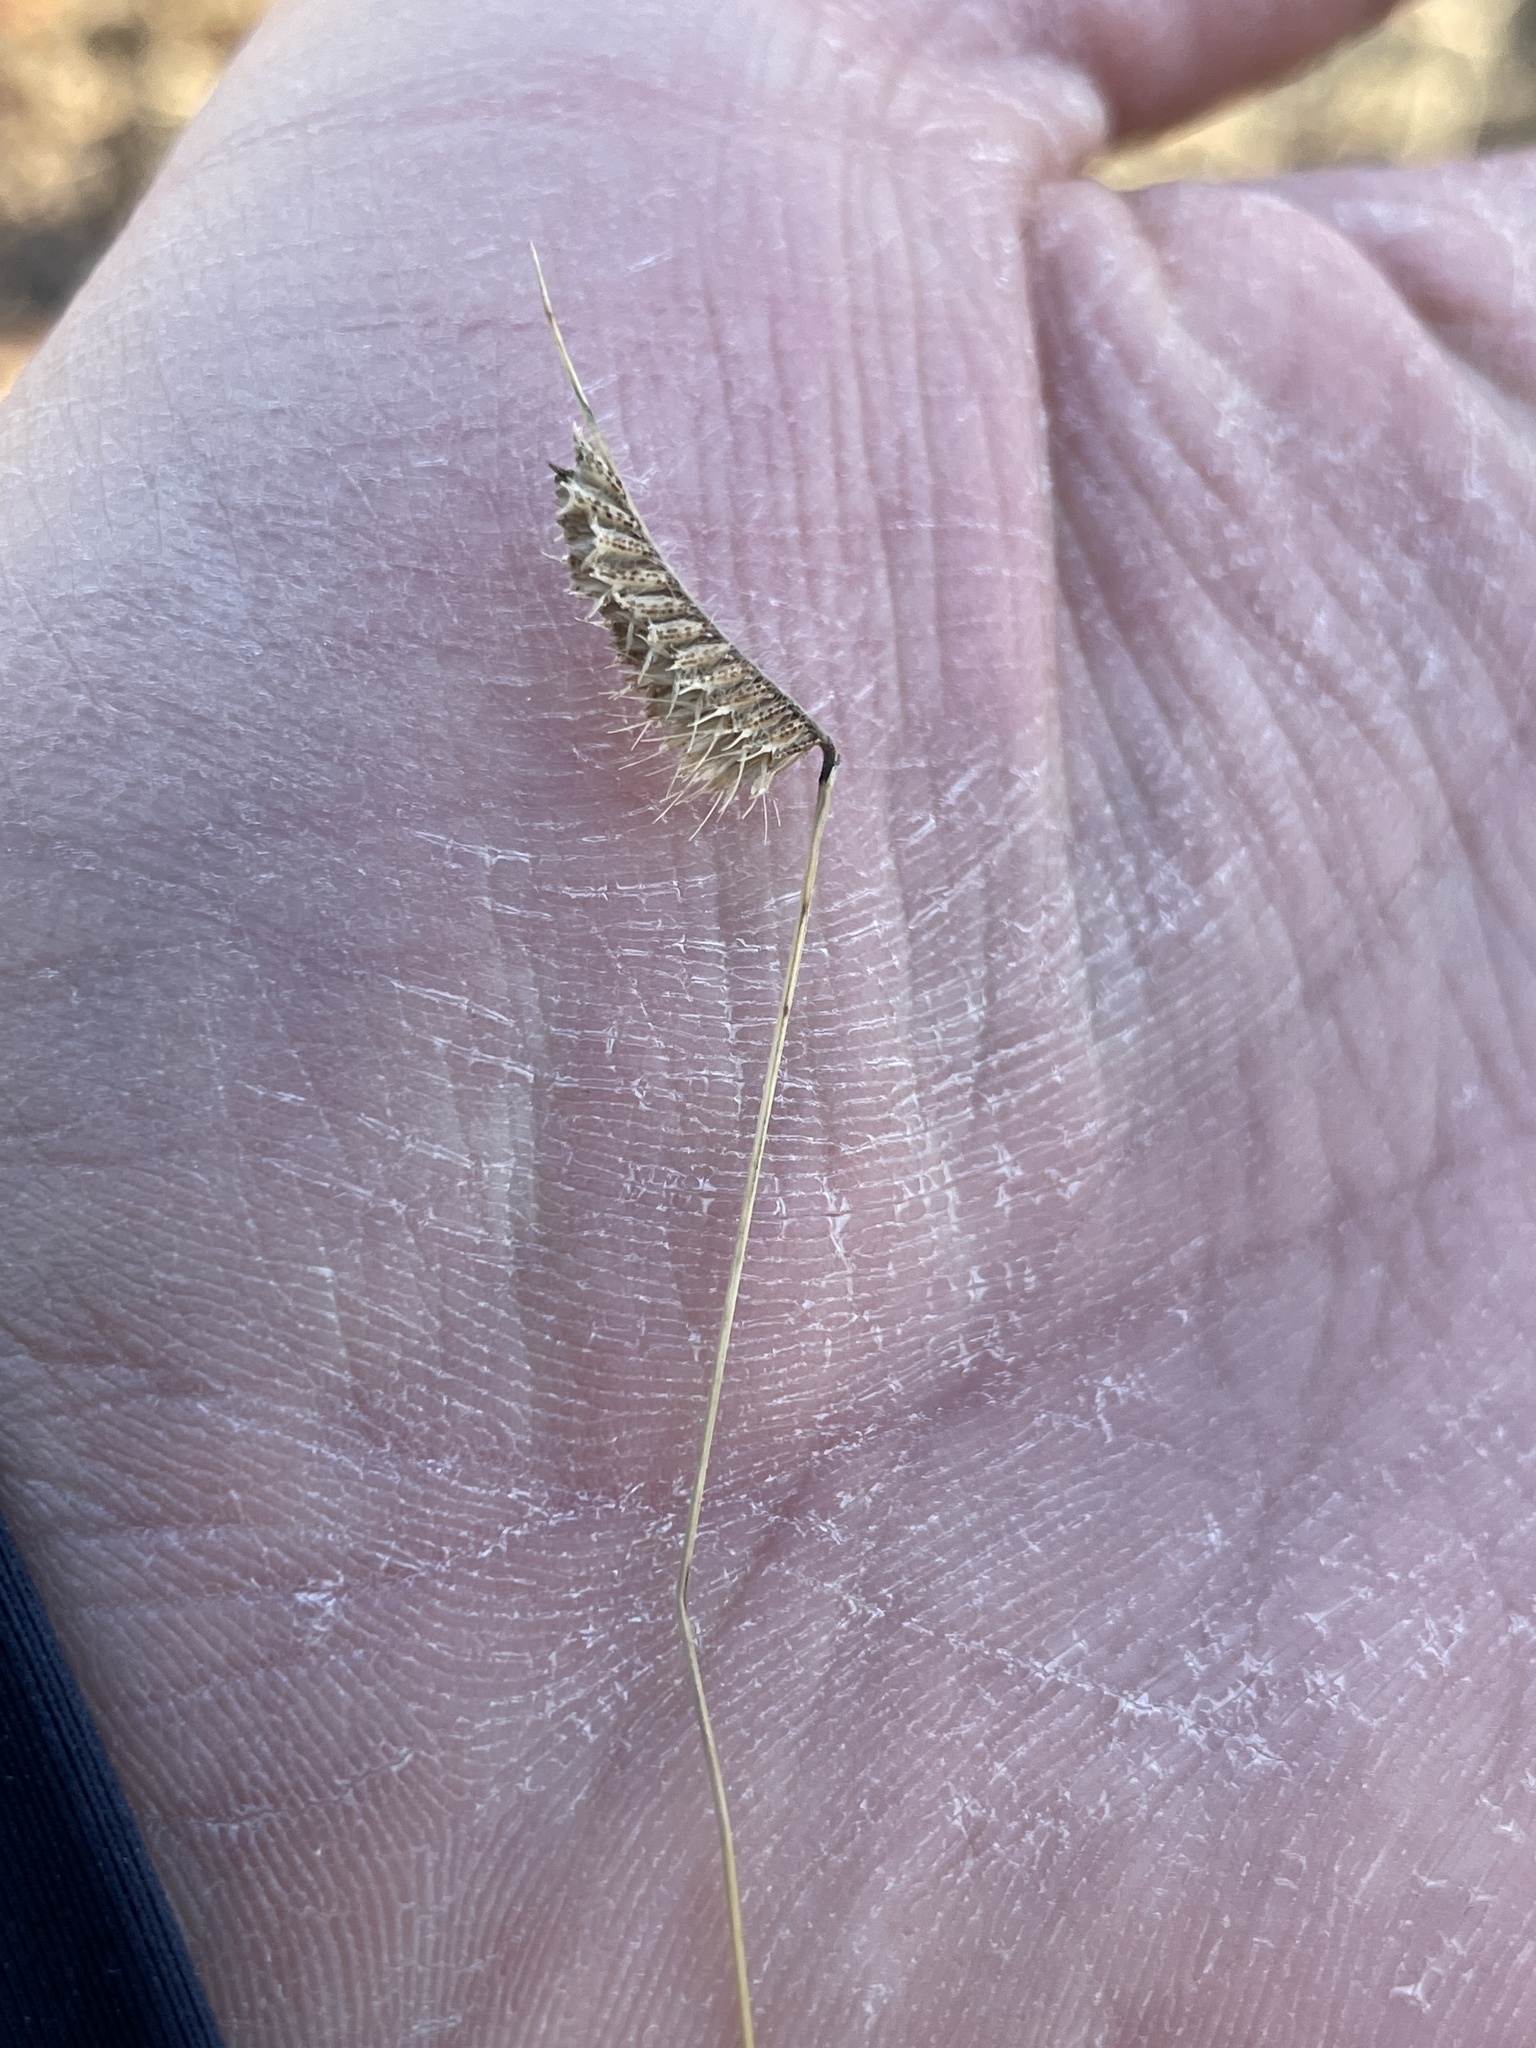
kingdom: Plantae
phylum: Tracheophyta
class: Liliopsida
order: Poales
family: Poaceae
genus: Bouteloua
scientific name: Bouteloua hirsuta
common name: Hairy grama
